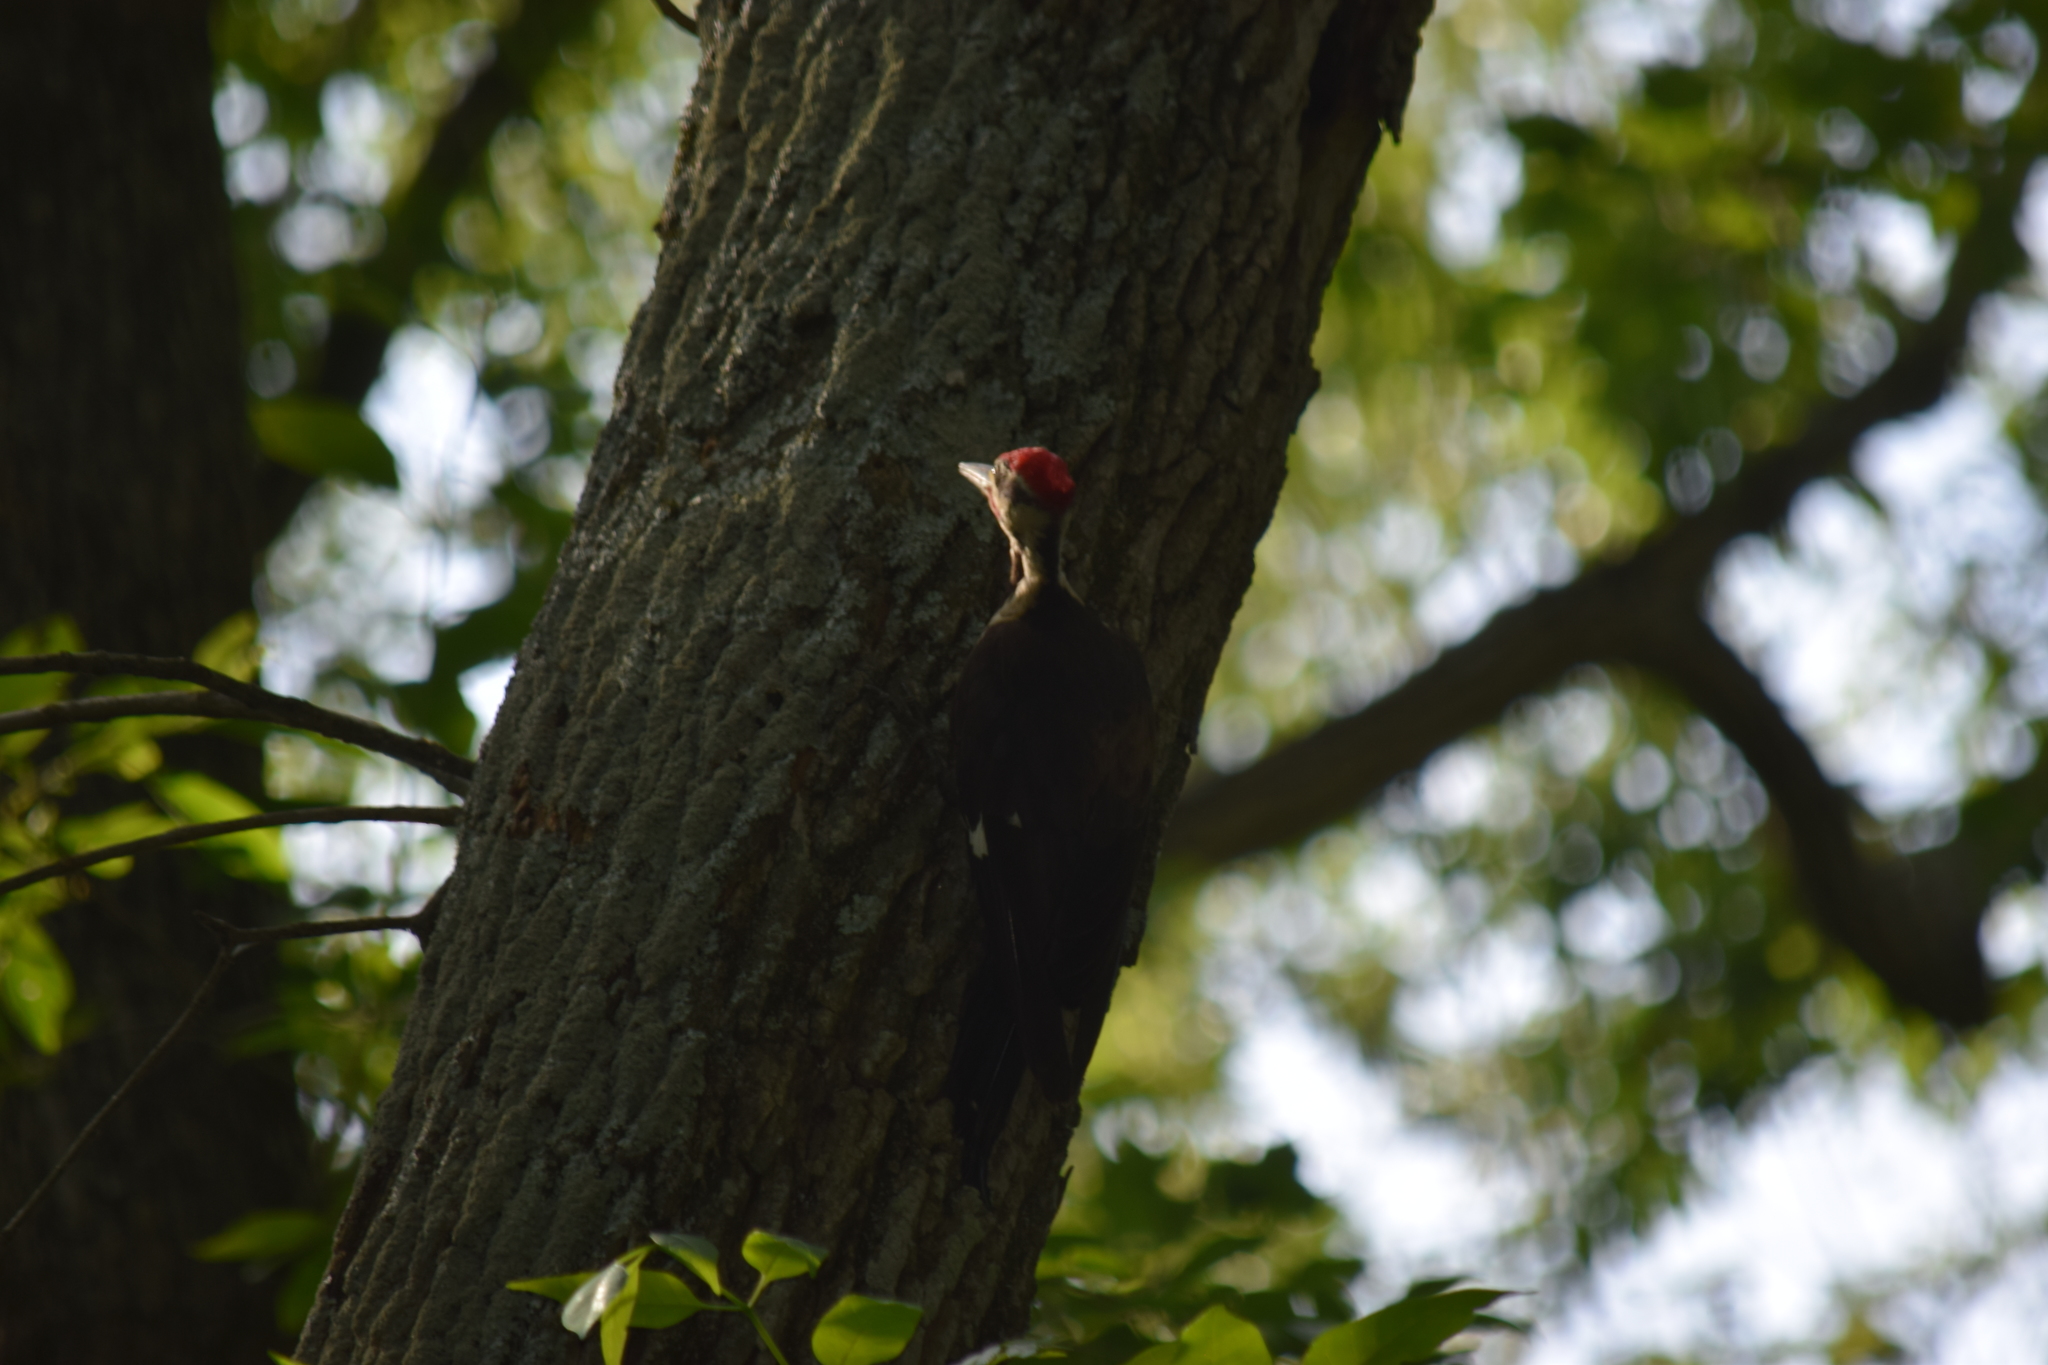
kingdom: Animalia
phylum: Chordata
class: Aves
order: Piciformes
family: Picidae
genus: Dryocopus
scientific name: Dryocopus pileatus
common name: Pileated woodpecker
